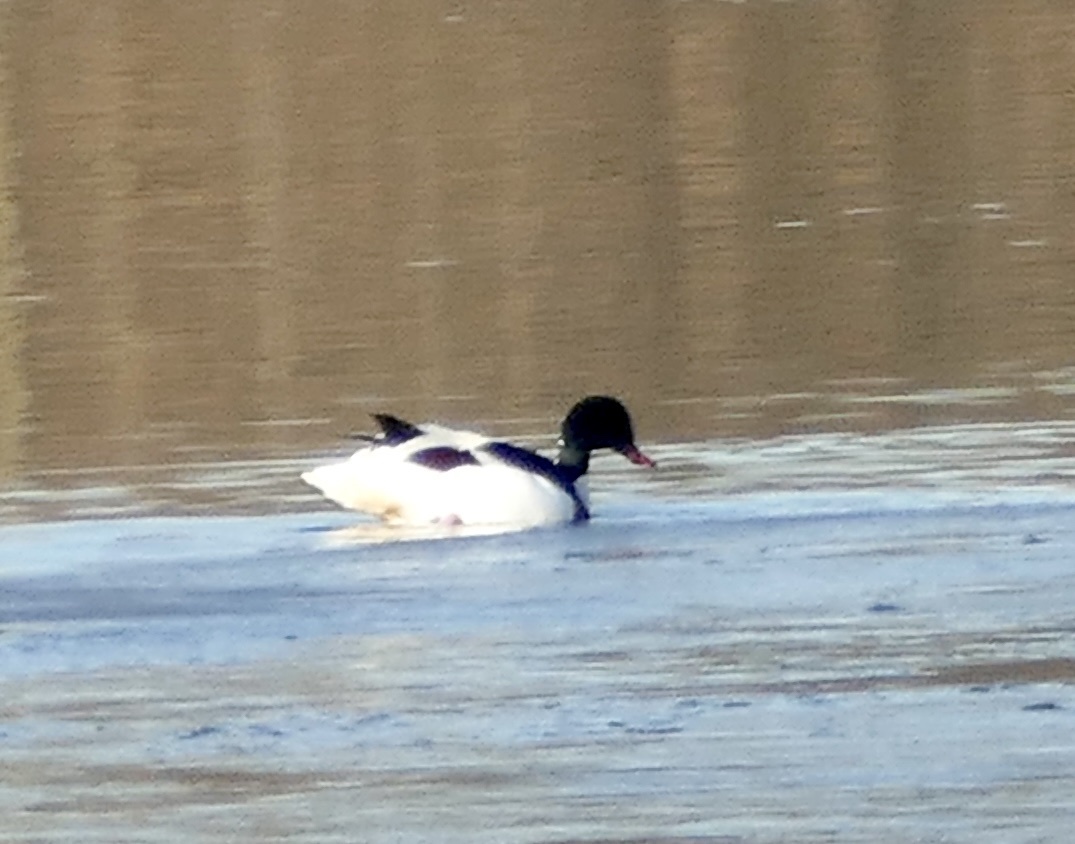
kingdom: Animalia
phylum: Chordata
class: Aves
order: Anseriformes
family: Anatidae
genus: Tadorna
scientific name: Tadorna tadorna
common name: Common shelduck
